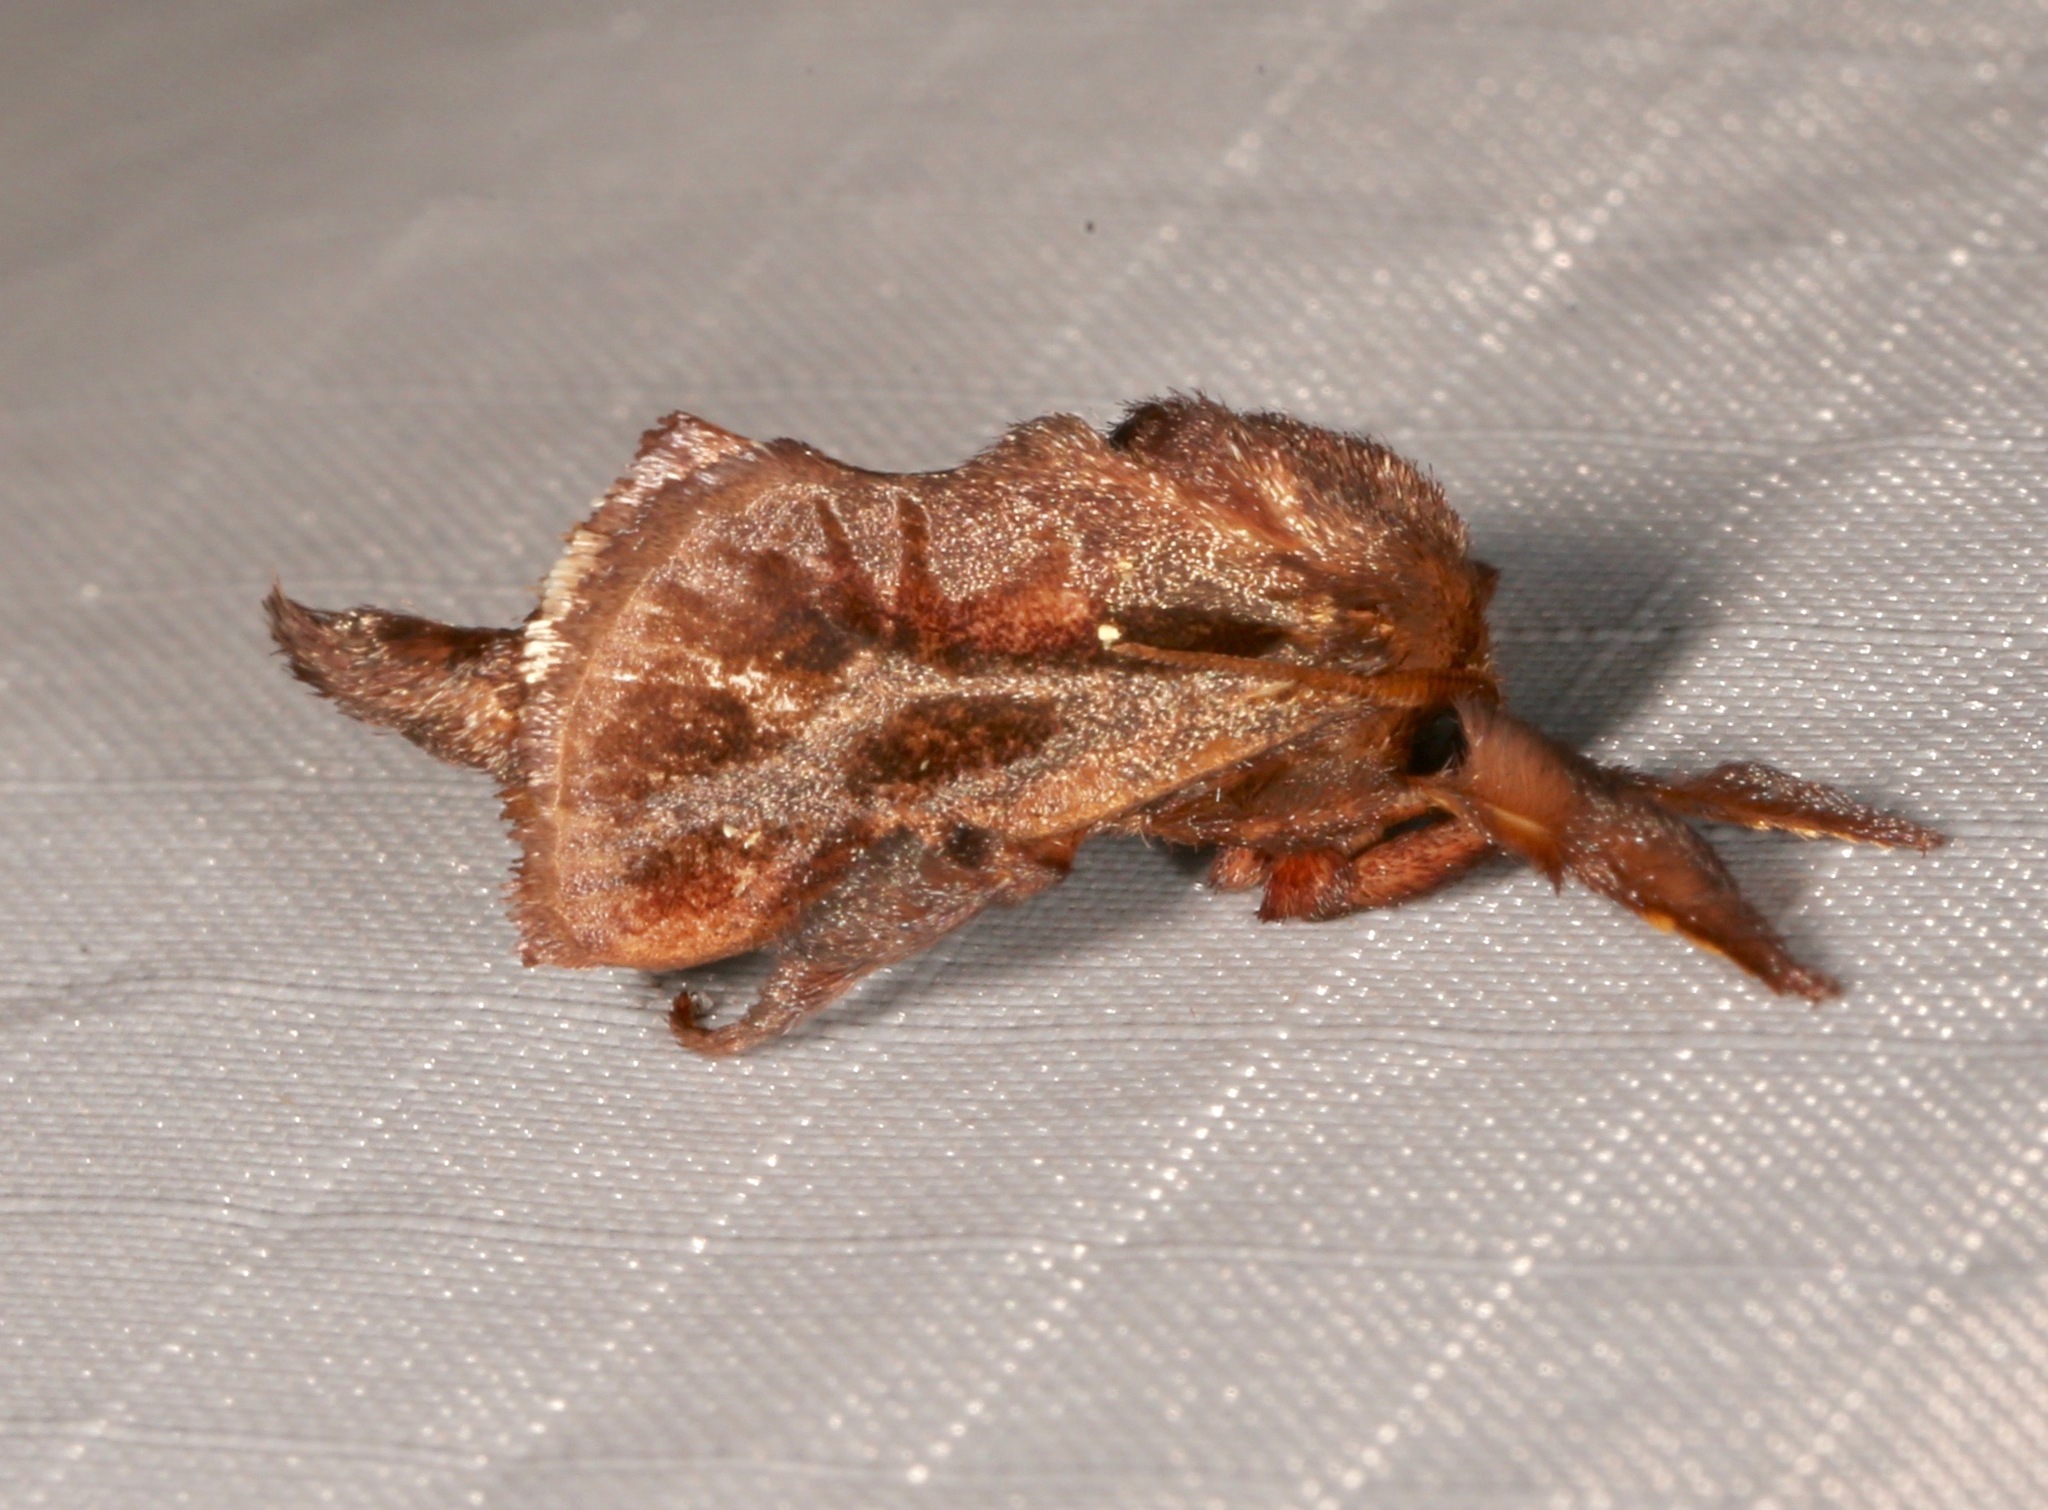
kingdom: Animalia
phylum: Arthropoda
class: Insecta
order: Lepidoptera
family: Limacodidae
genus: Acharia
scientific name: Acharia stimulea
